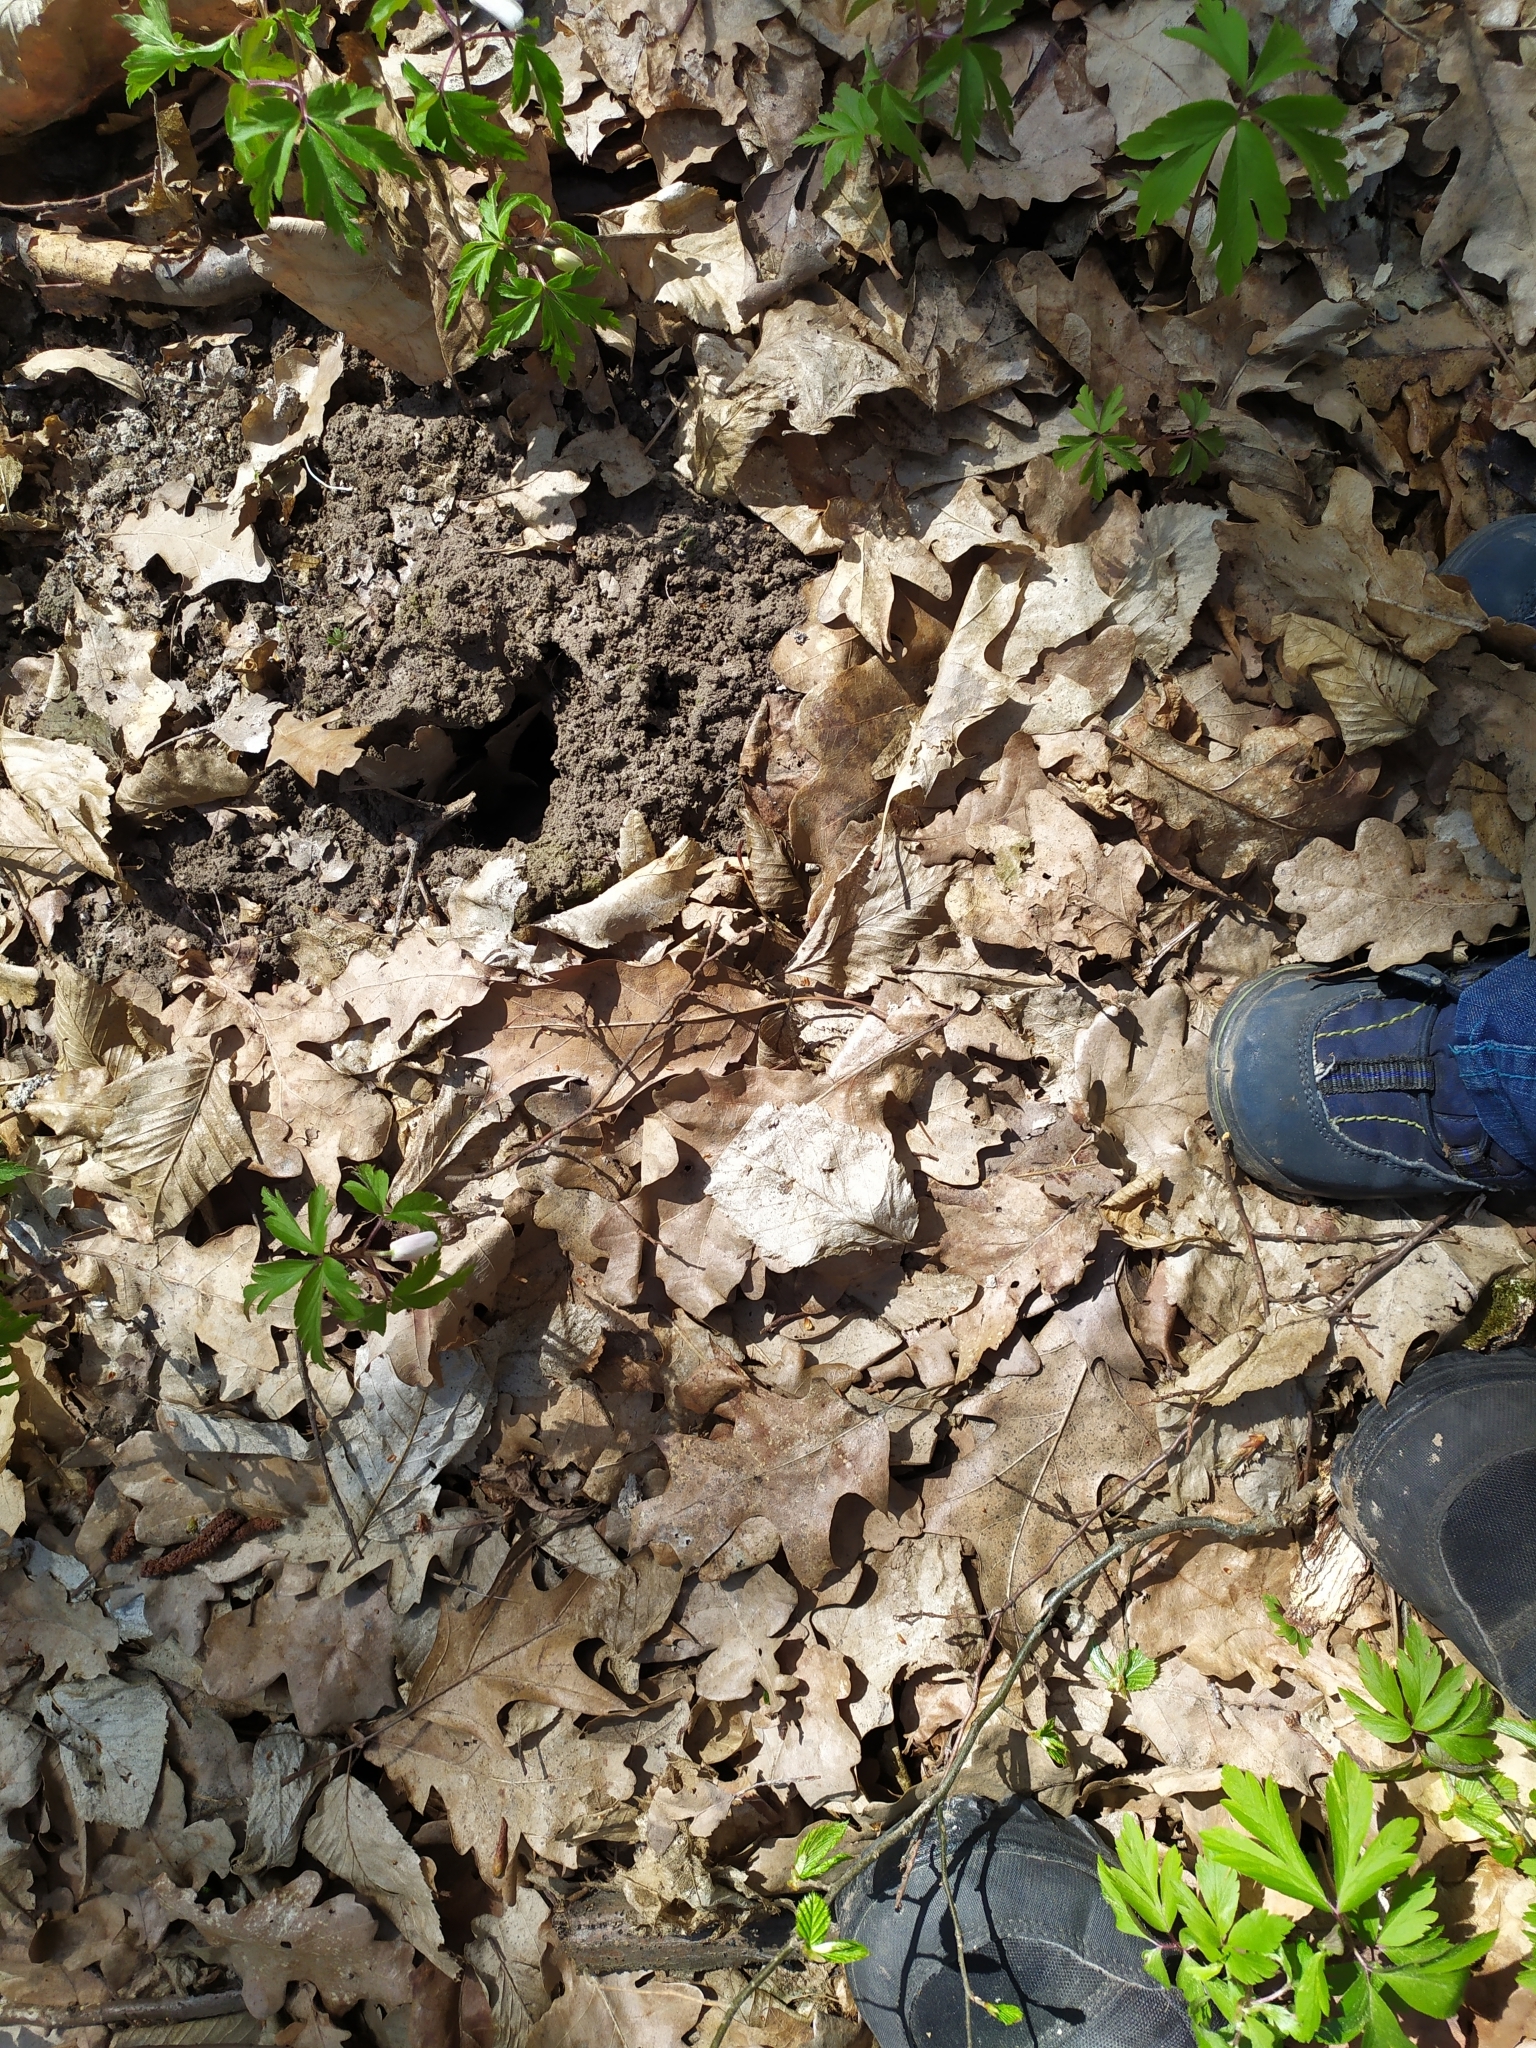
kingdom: Animalia
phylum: Chordata
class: Mammalia
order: Soricomorpha
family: Talpidae
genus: Talpa
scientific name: Talpa europaea
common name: European mole
